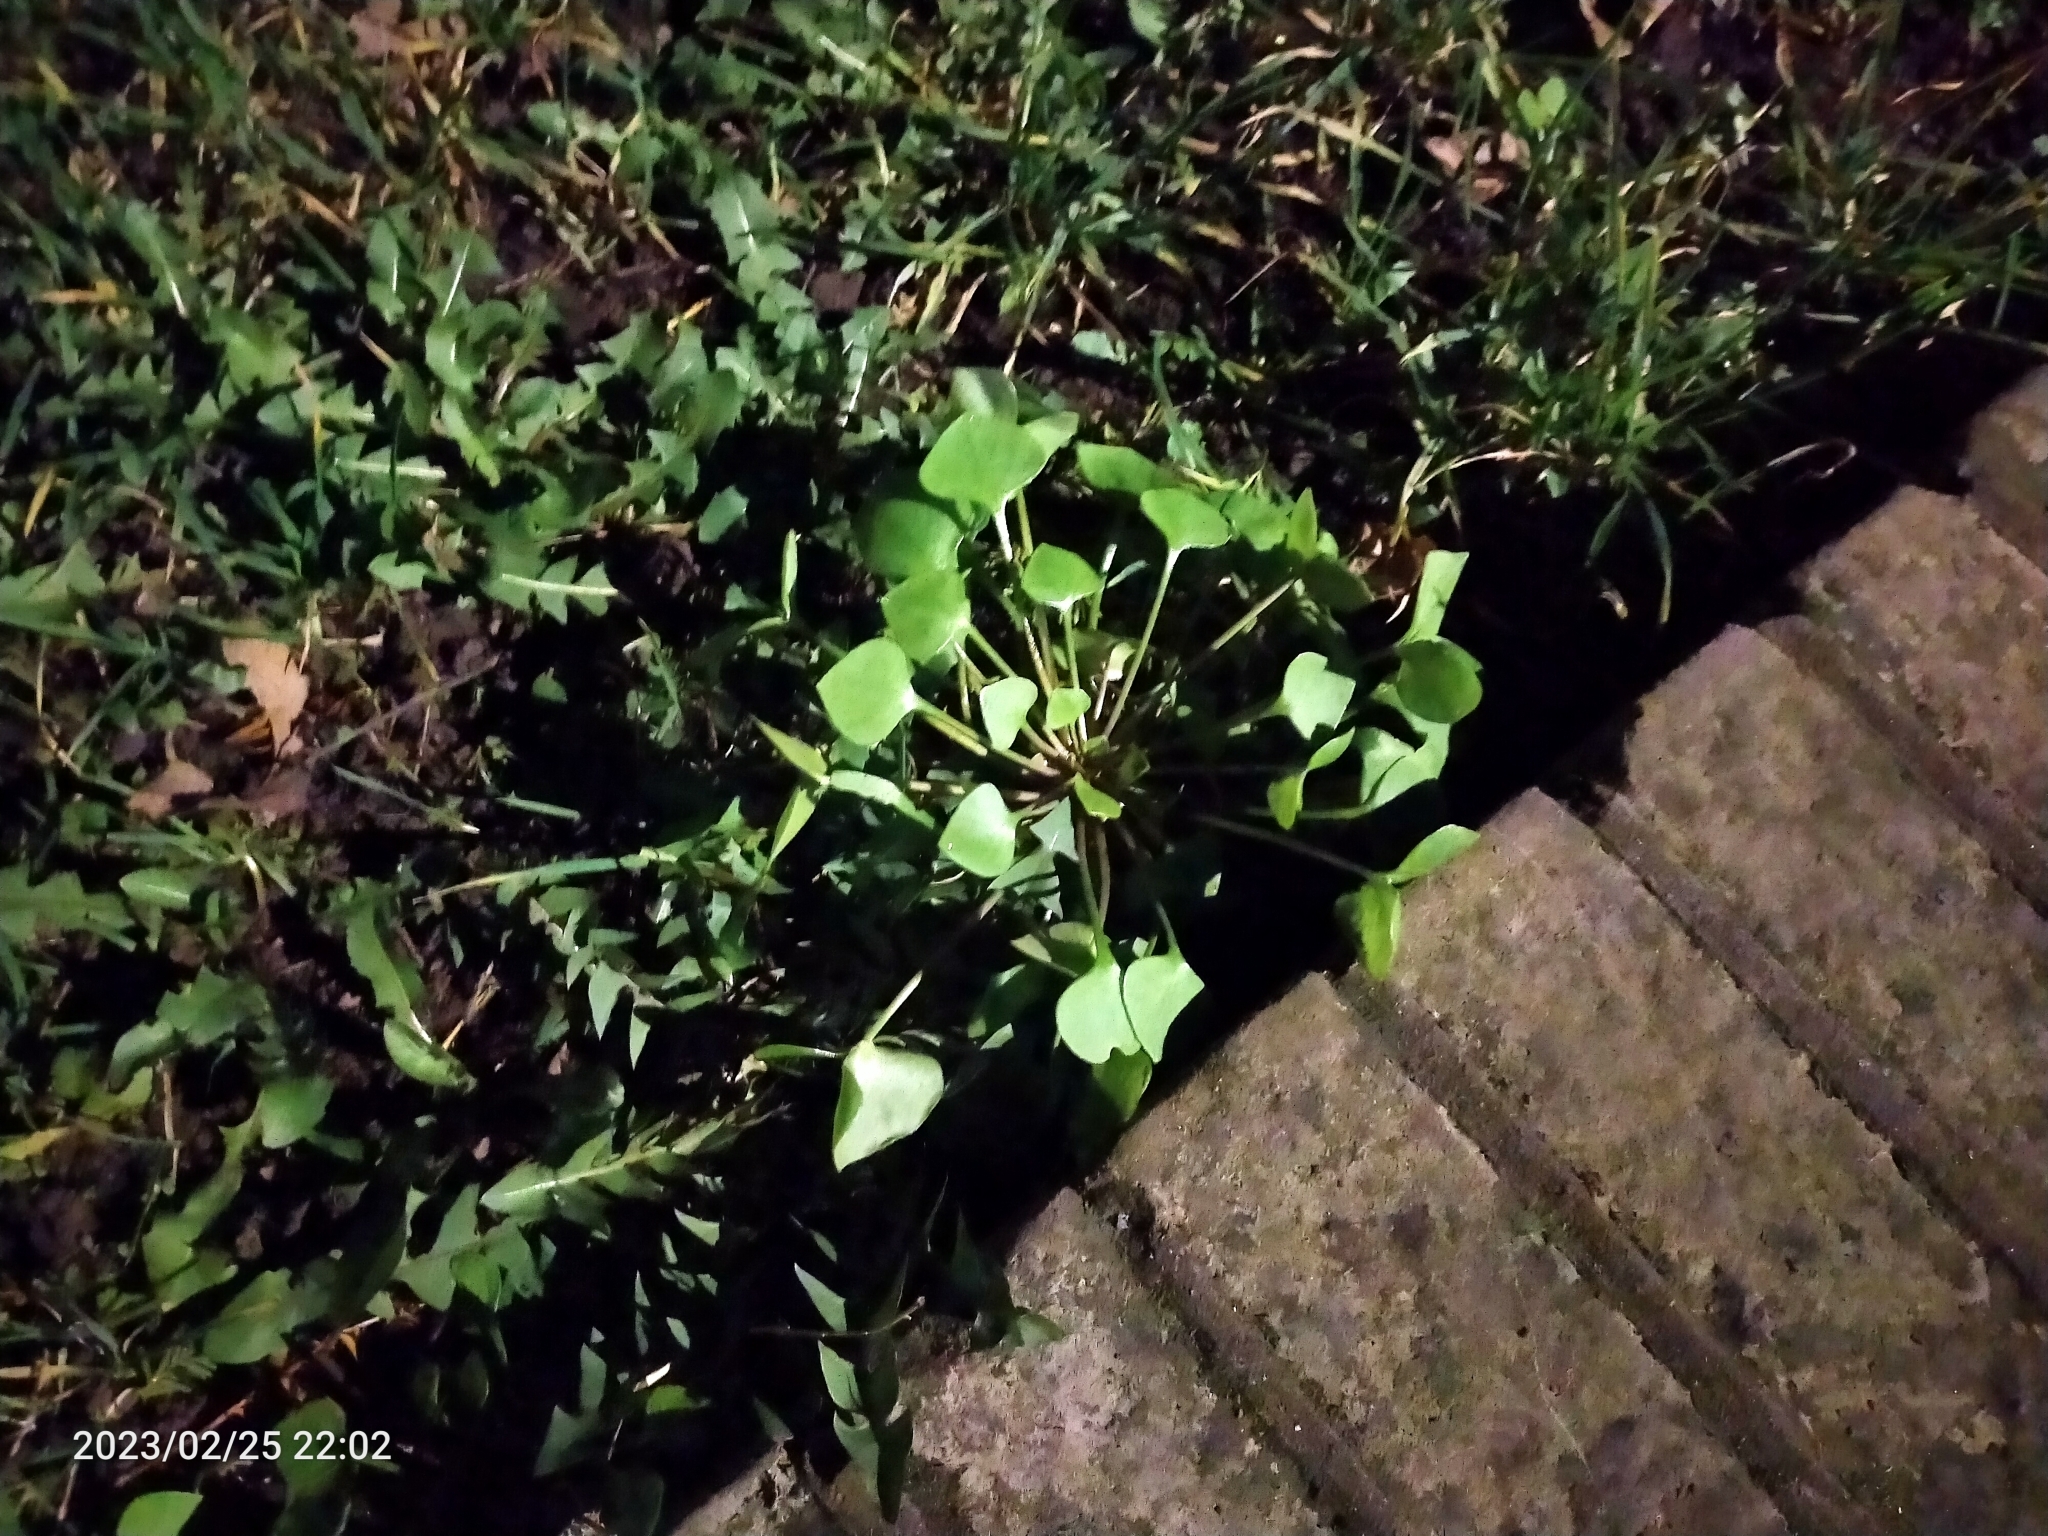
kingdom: Plantae
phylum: Tracheophyta
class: Magnoliopsida
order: Caryophyllales
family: Montiaceae
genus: Claytonia
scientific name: Claytonia perfoliata
